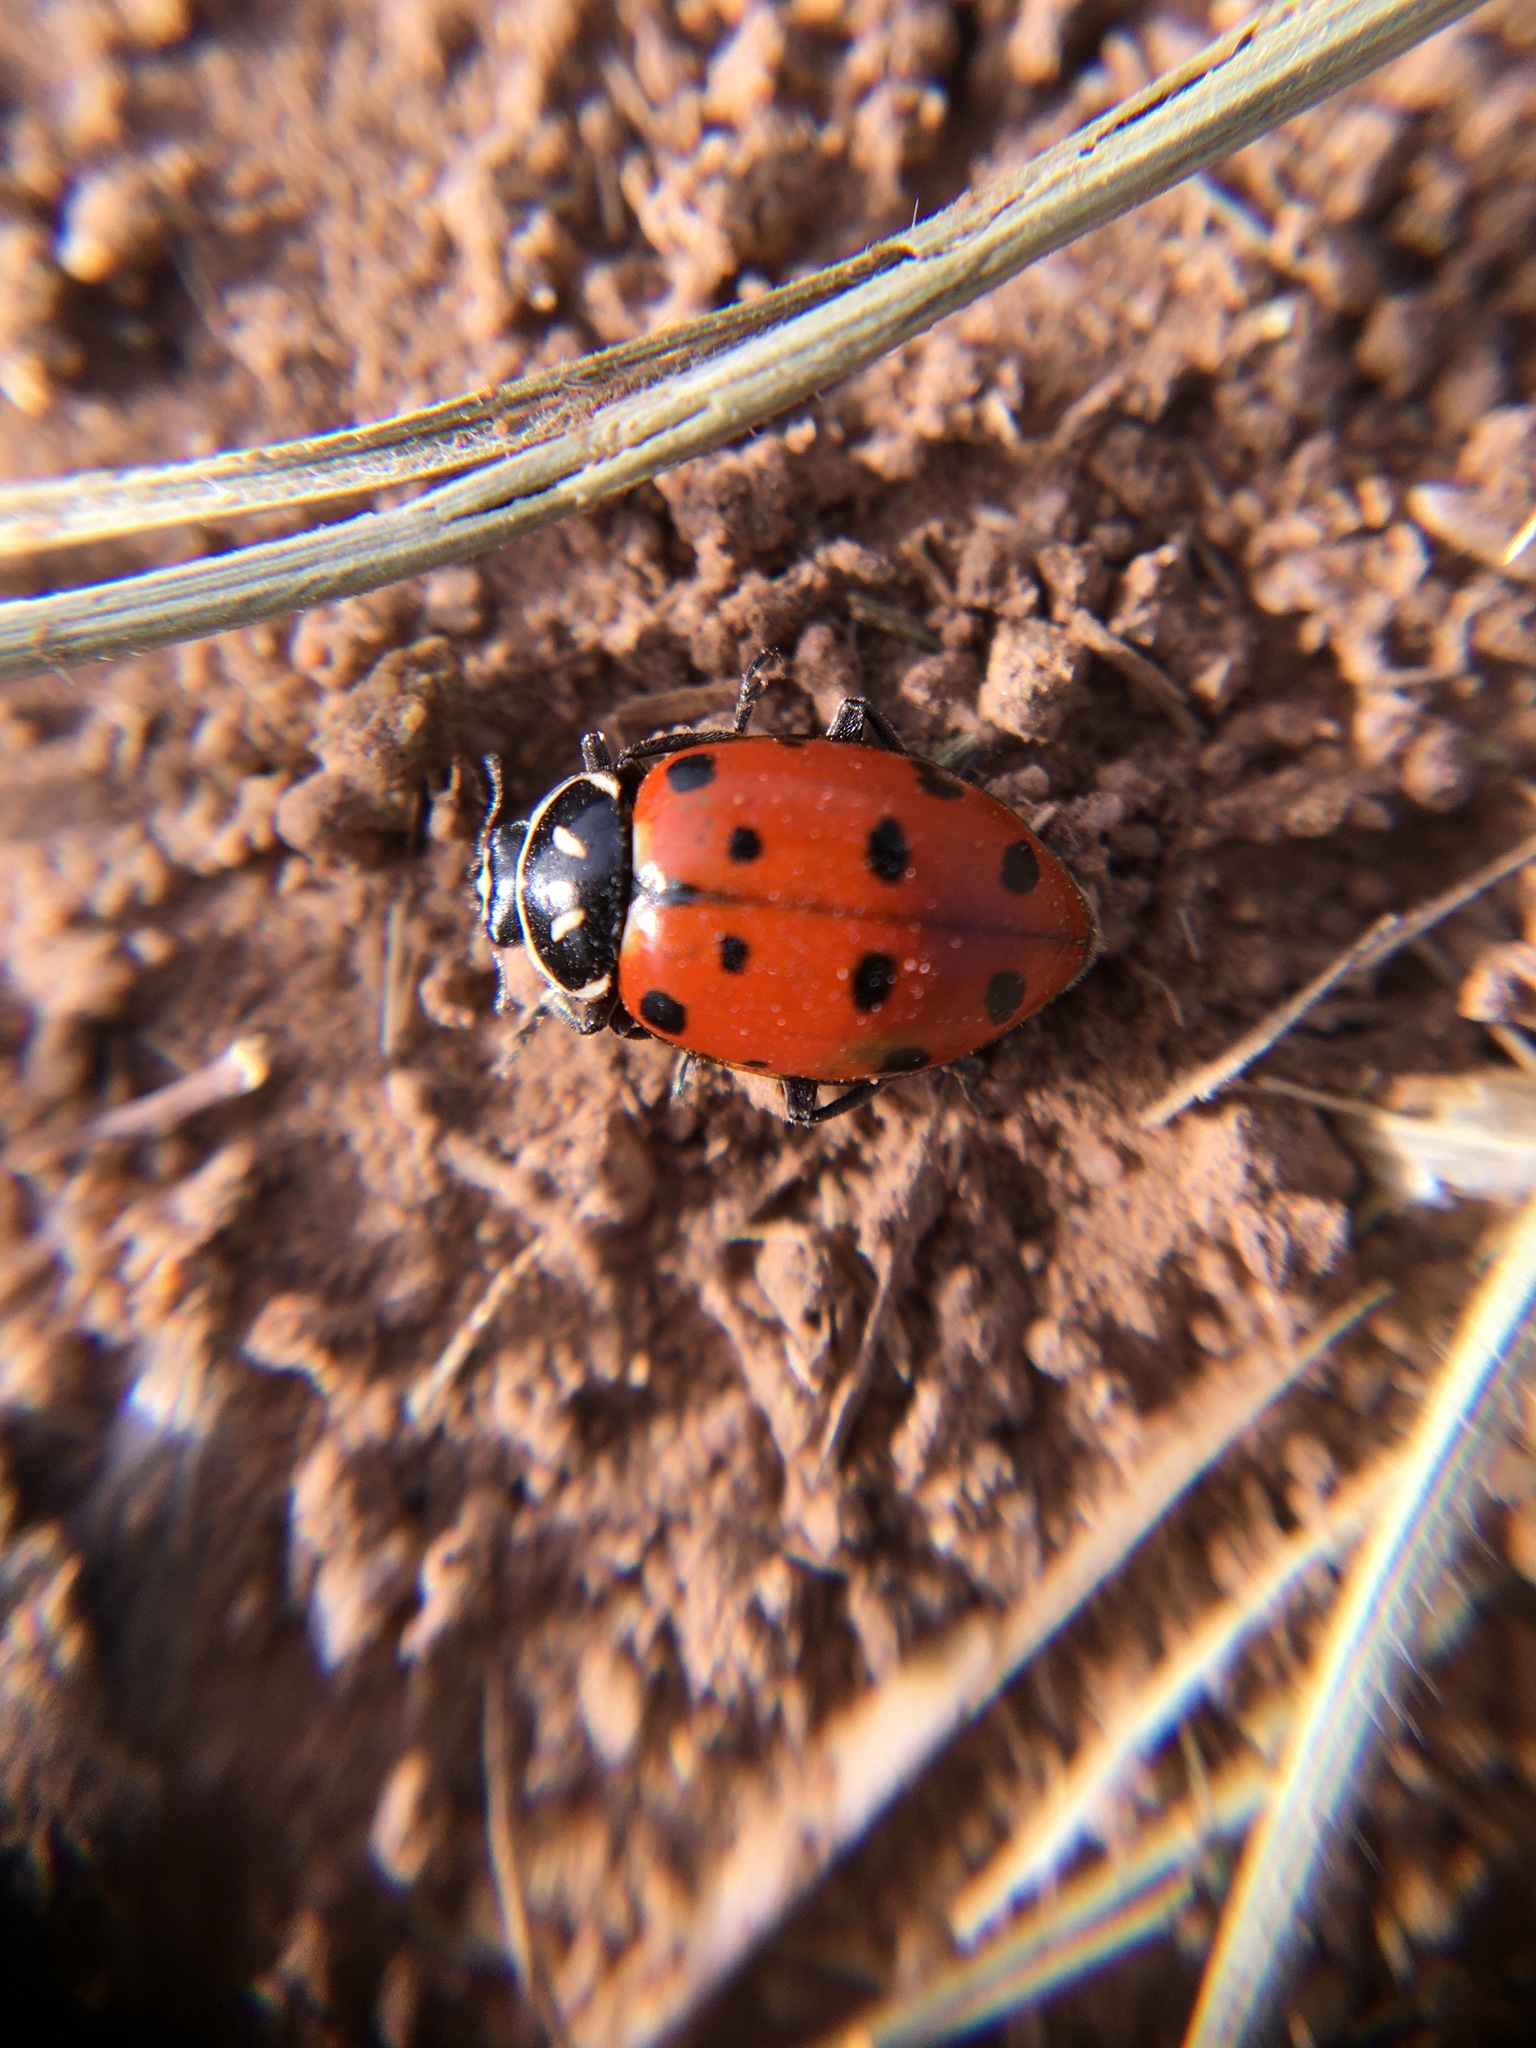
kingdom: Animalia
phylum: Arthropoda
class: Insecta
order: Coleoptera
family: Coccinellidae
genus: Hippodamia
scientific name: Hippodamia convergens
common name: Convergent lady beetle
